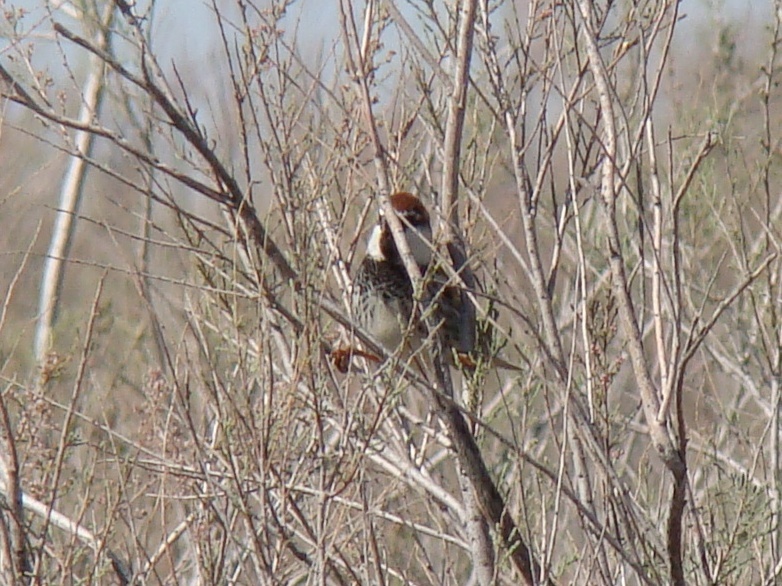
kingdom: Animalia
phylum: Chordata
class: Aves
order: Passeriformes
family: Passeridae
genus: Passer
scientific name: Passer hispaniolensis
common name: Spanish sparrow
